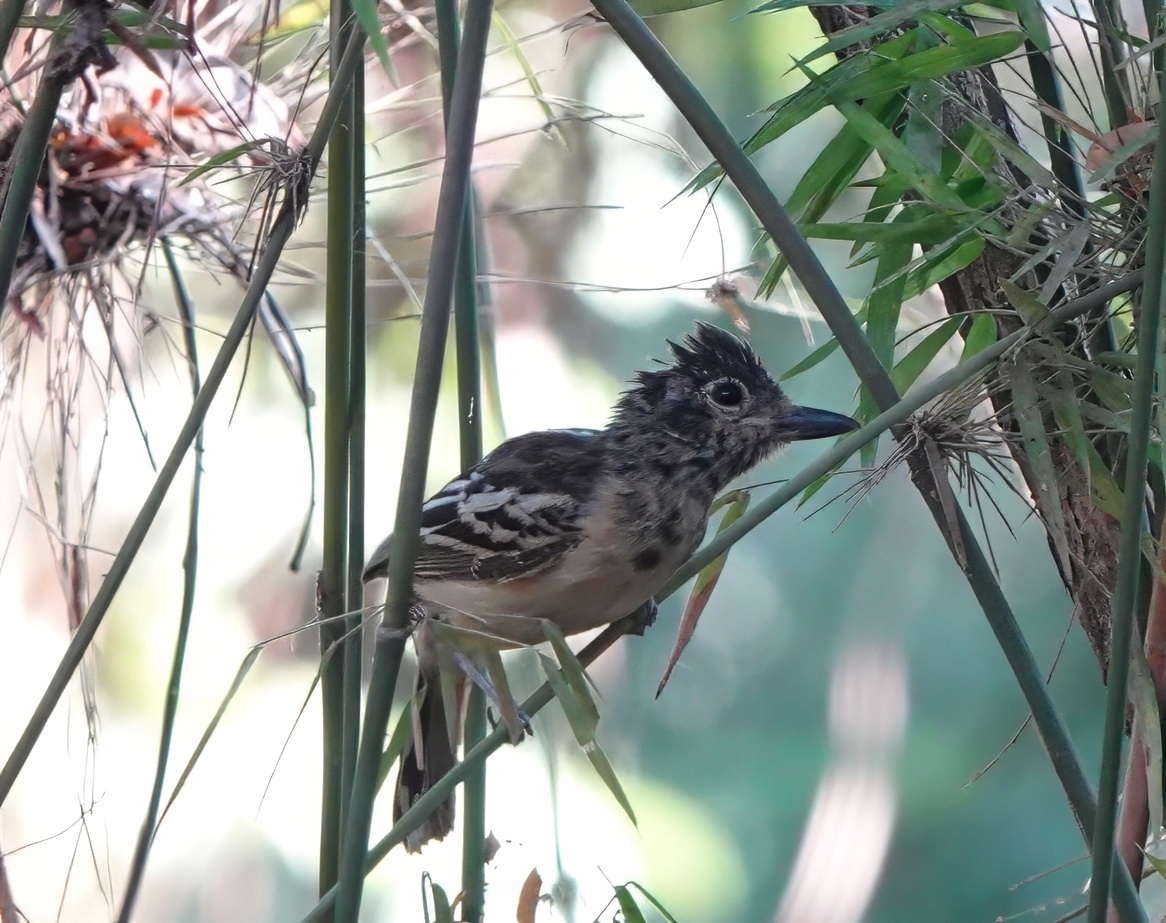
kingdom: Animalia
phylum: Chordata
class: Aves
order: Passeriformes
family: Thamnophilidae
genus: Thamnophilus
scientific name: Thamnophilus melanonotus
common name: Black-backed antshrike
